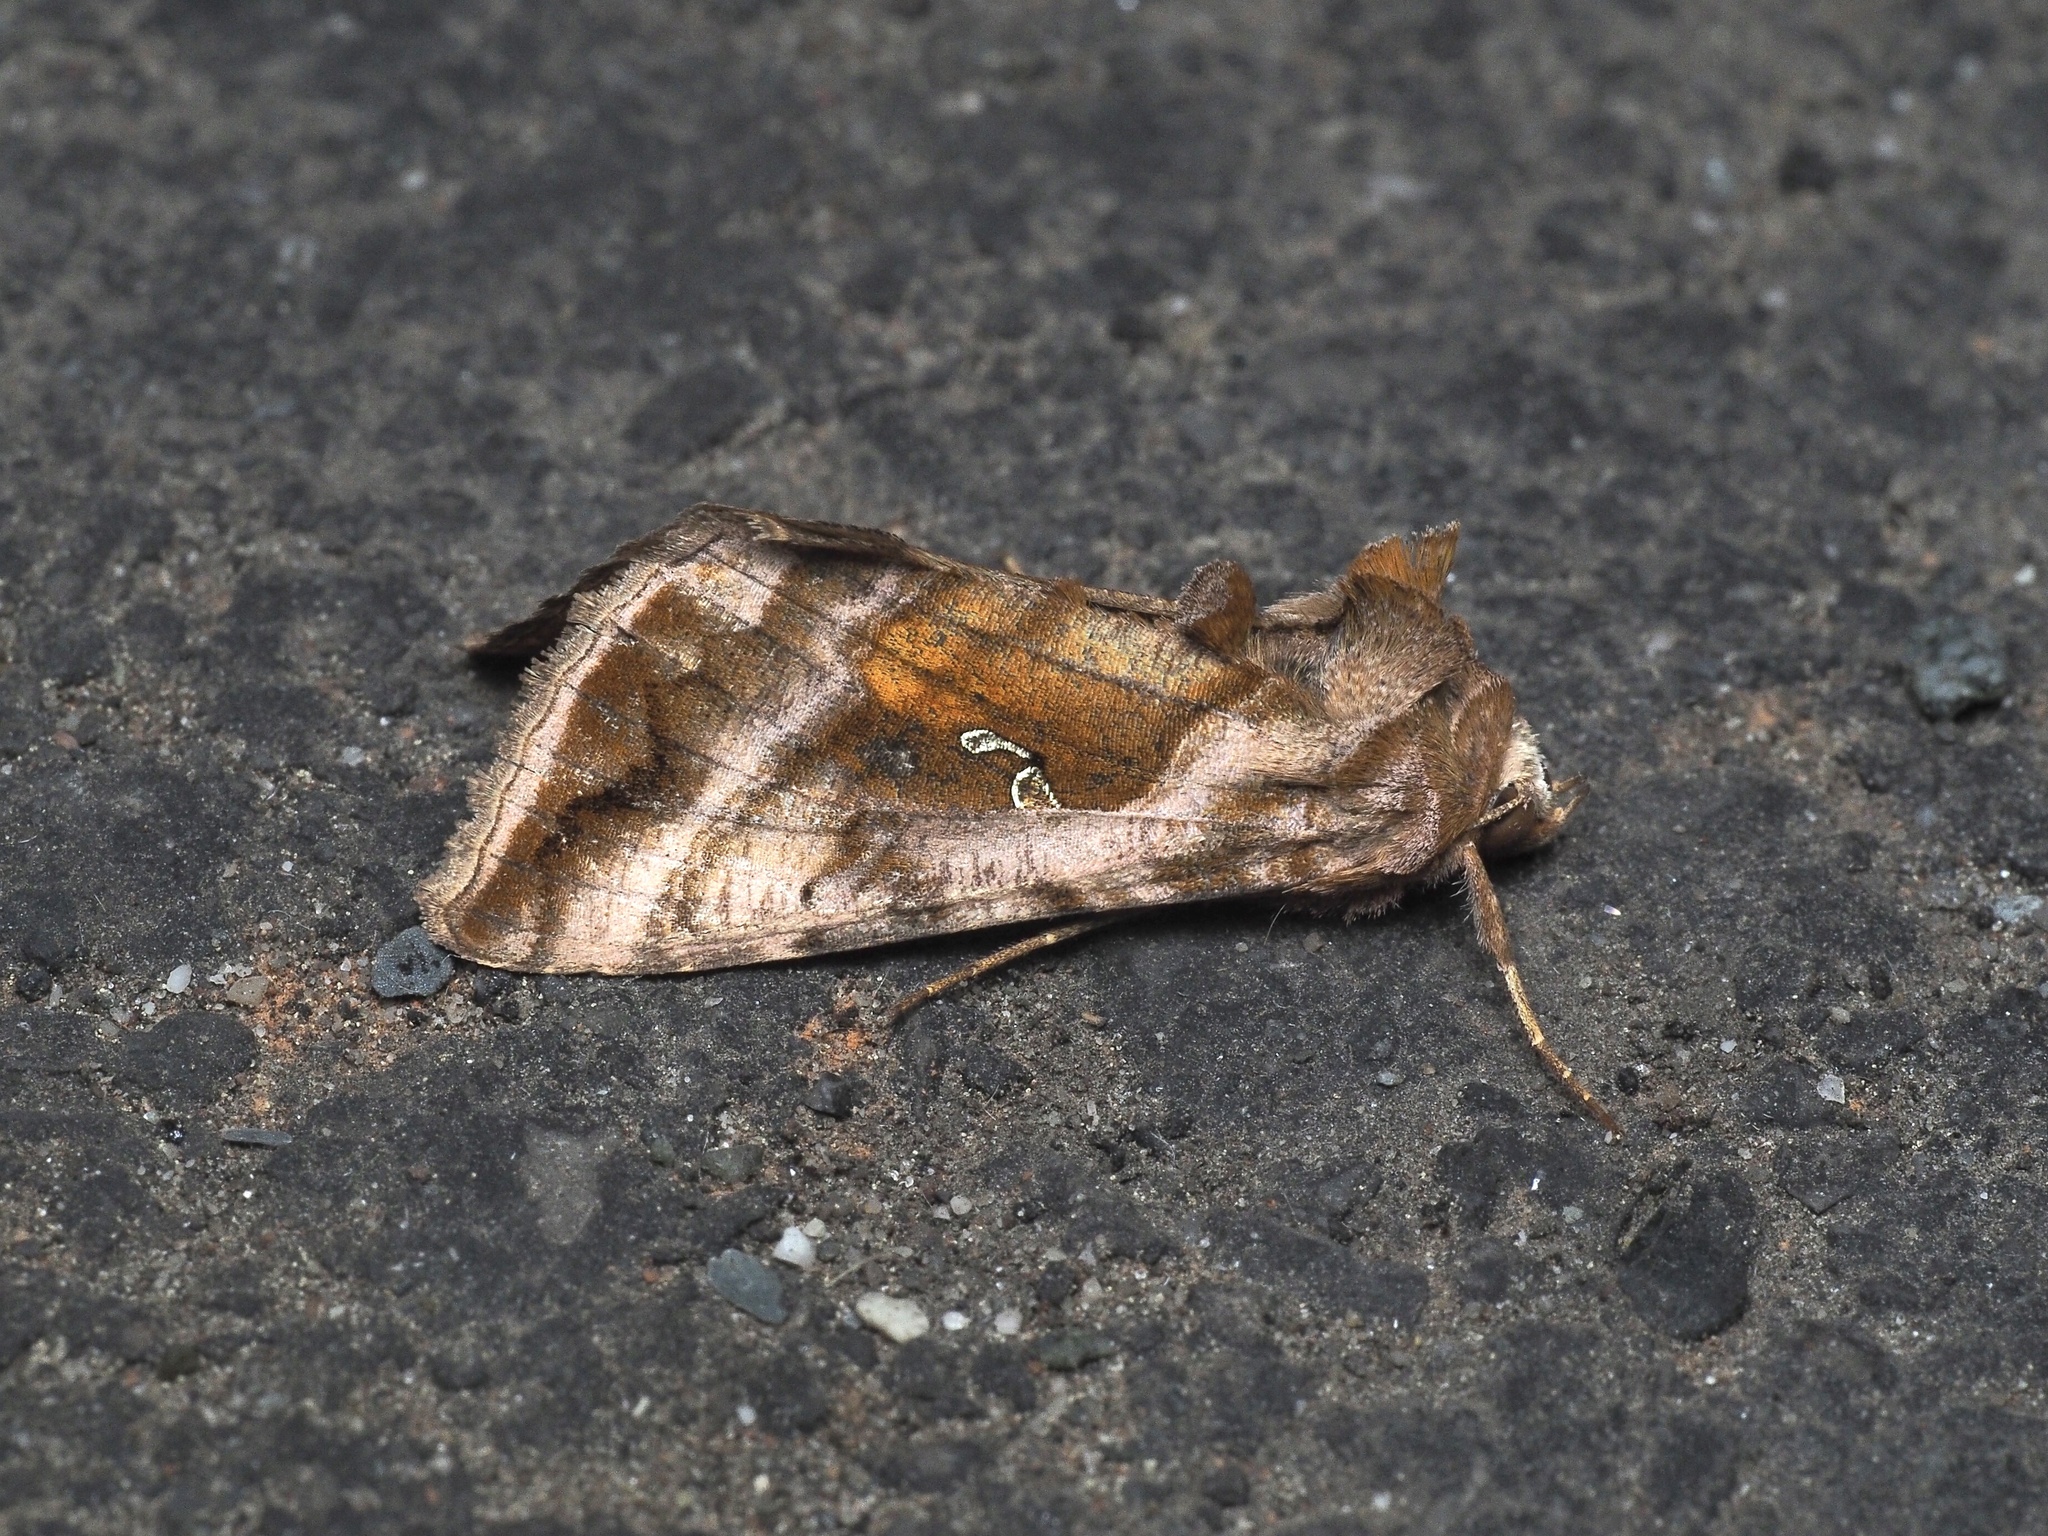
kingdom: Animalia
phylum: Arthropoda
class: Insecta
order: Lepidoptera
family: Noctuidae
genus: Autographa
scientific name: Autographa jota
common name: Plain golden y
